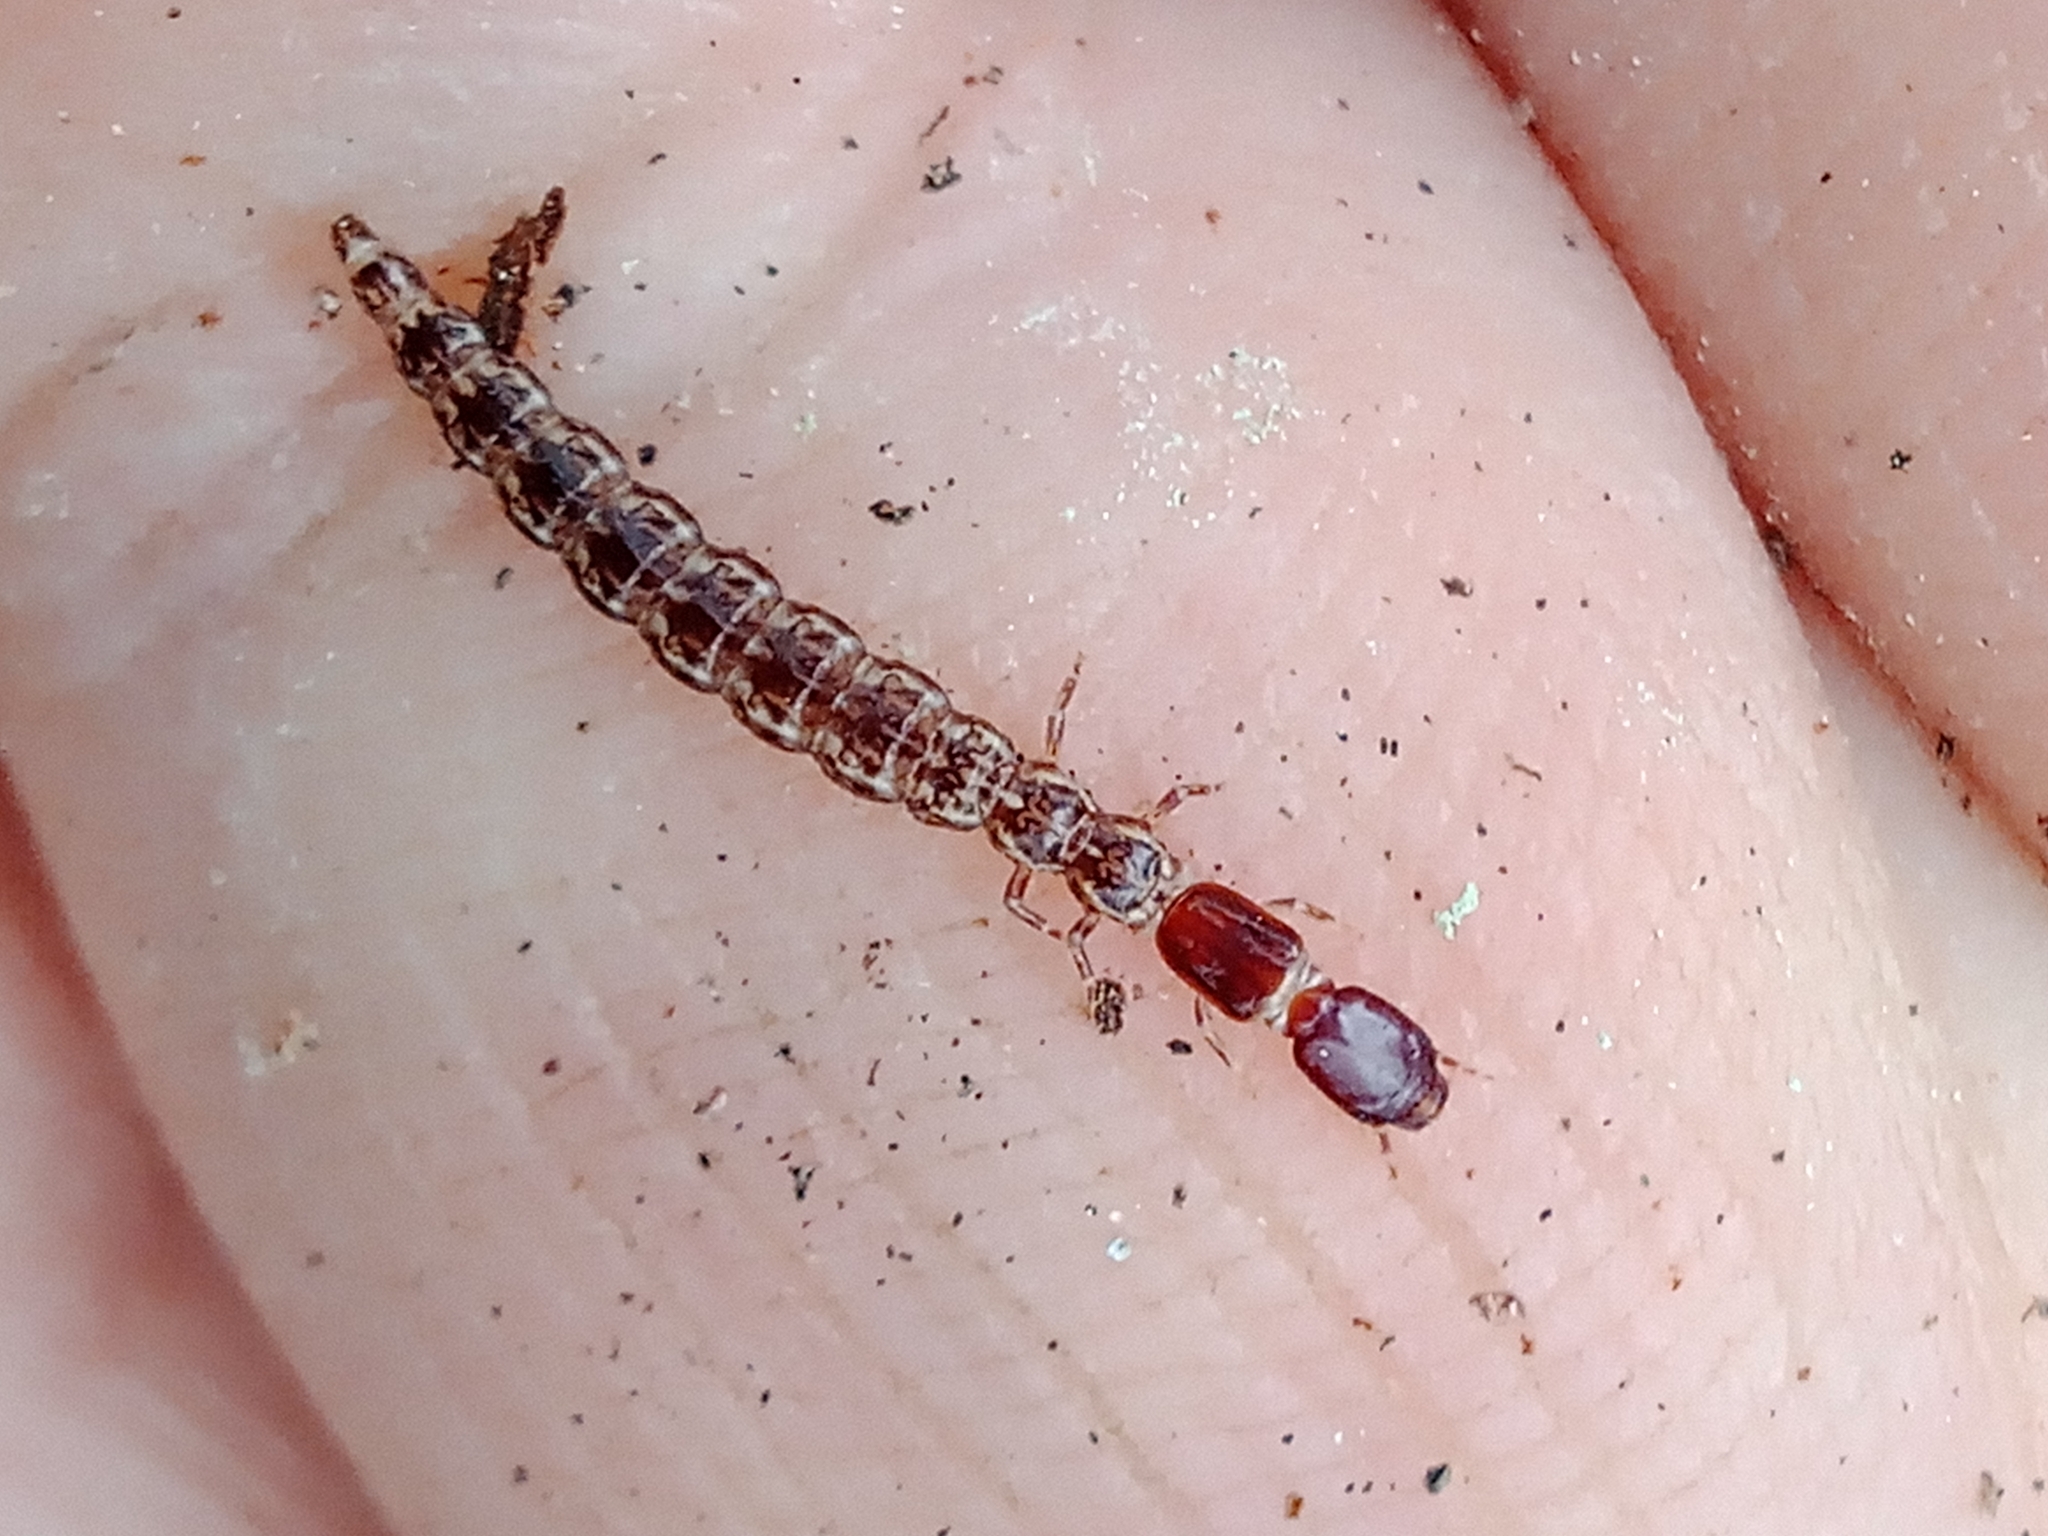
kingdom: Animalia
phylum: Arthropoda
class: Insecta
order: Raphidioptera
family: Raphidiidae
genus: Raphidia
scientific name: Raphidia ophiopsis
